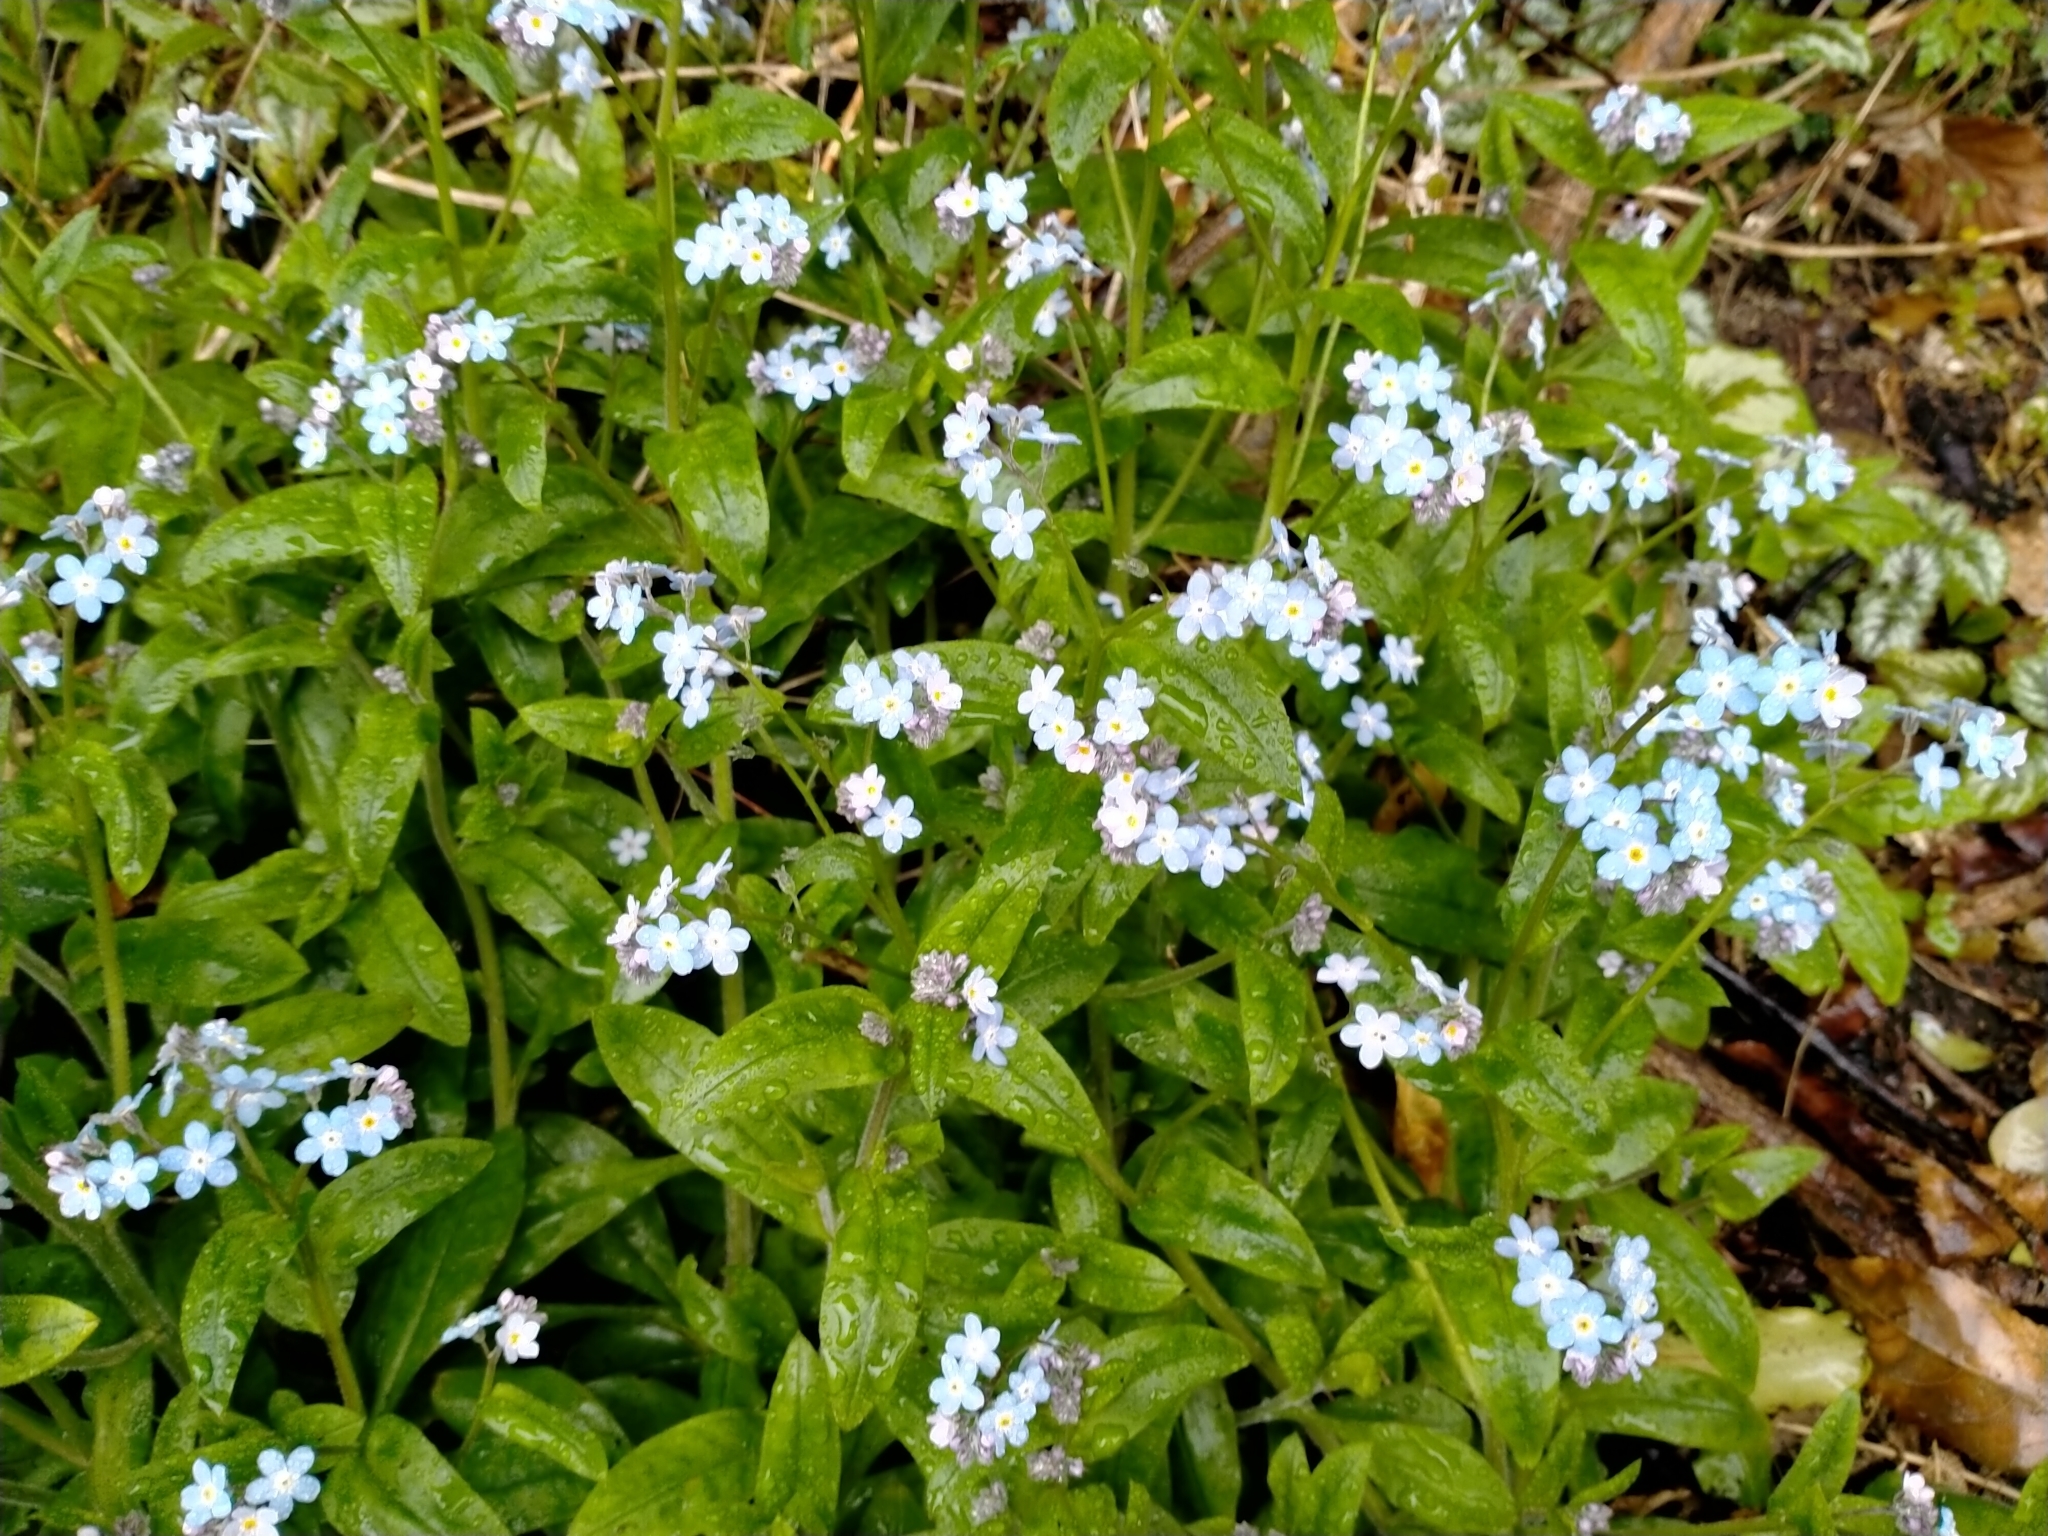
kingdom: Plantae
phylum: Tracheophyta
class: Magnoliopsida
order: Boraginales
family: Boraginaceae
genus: Myosotis
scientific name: Myosotis sylvatica
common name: Wood forget-me-not
